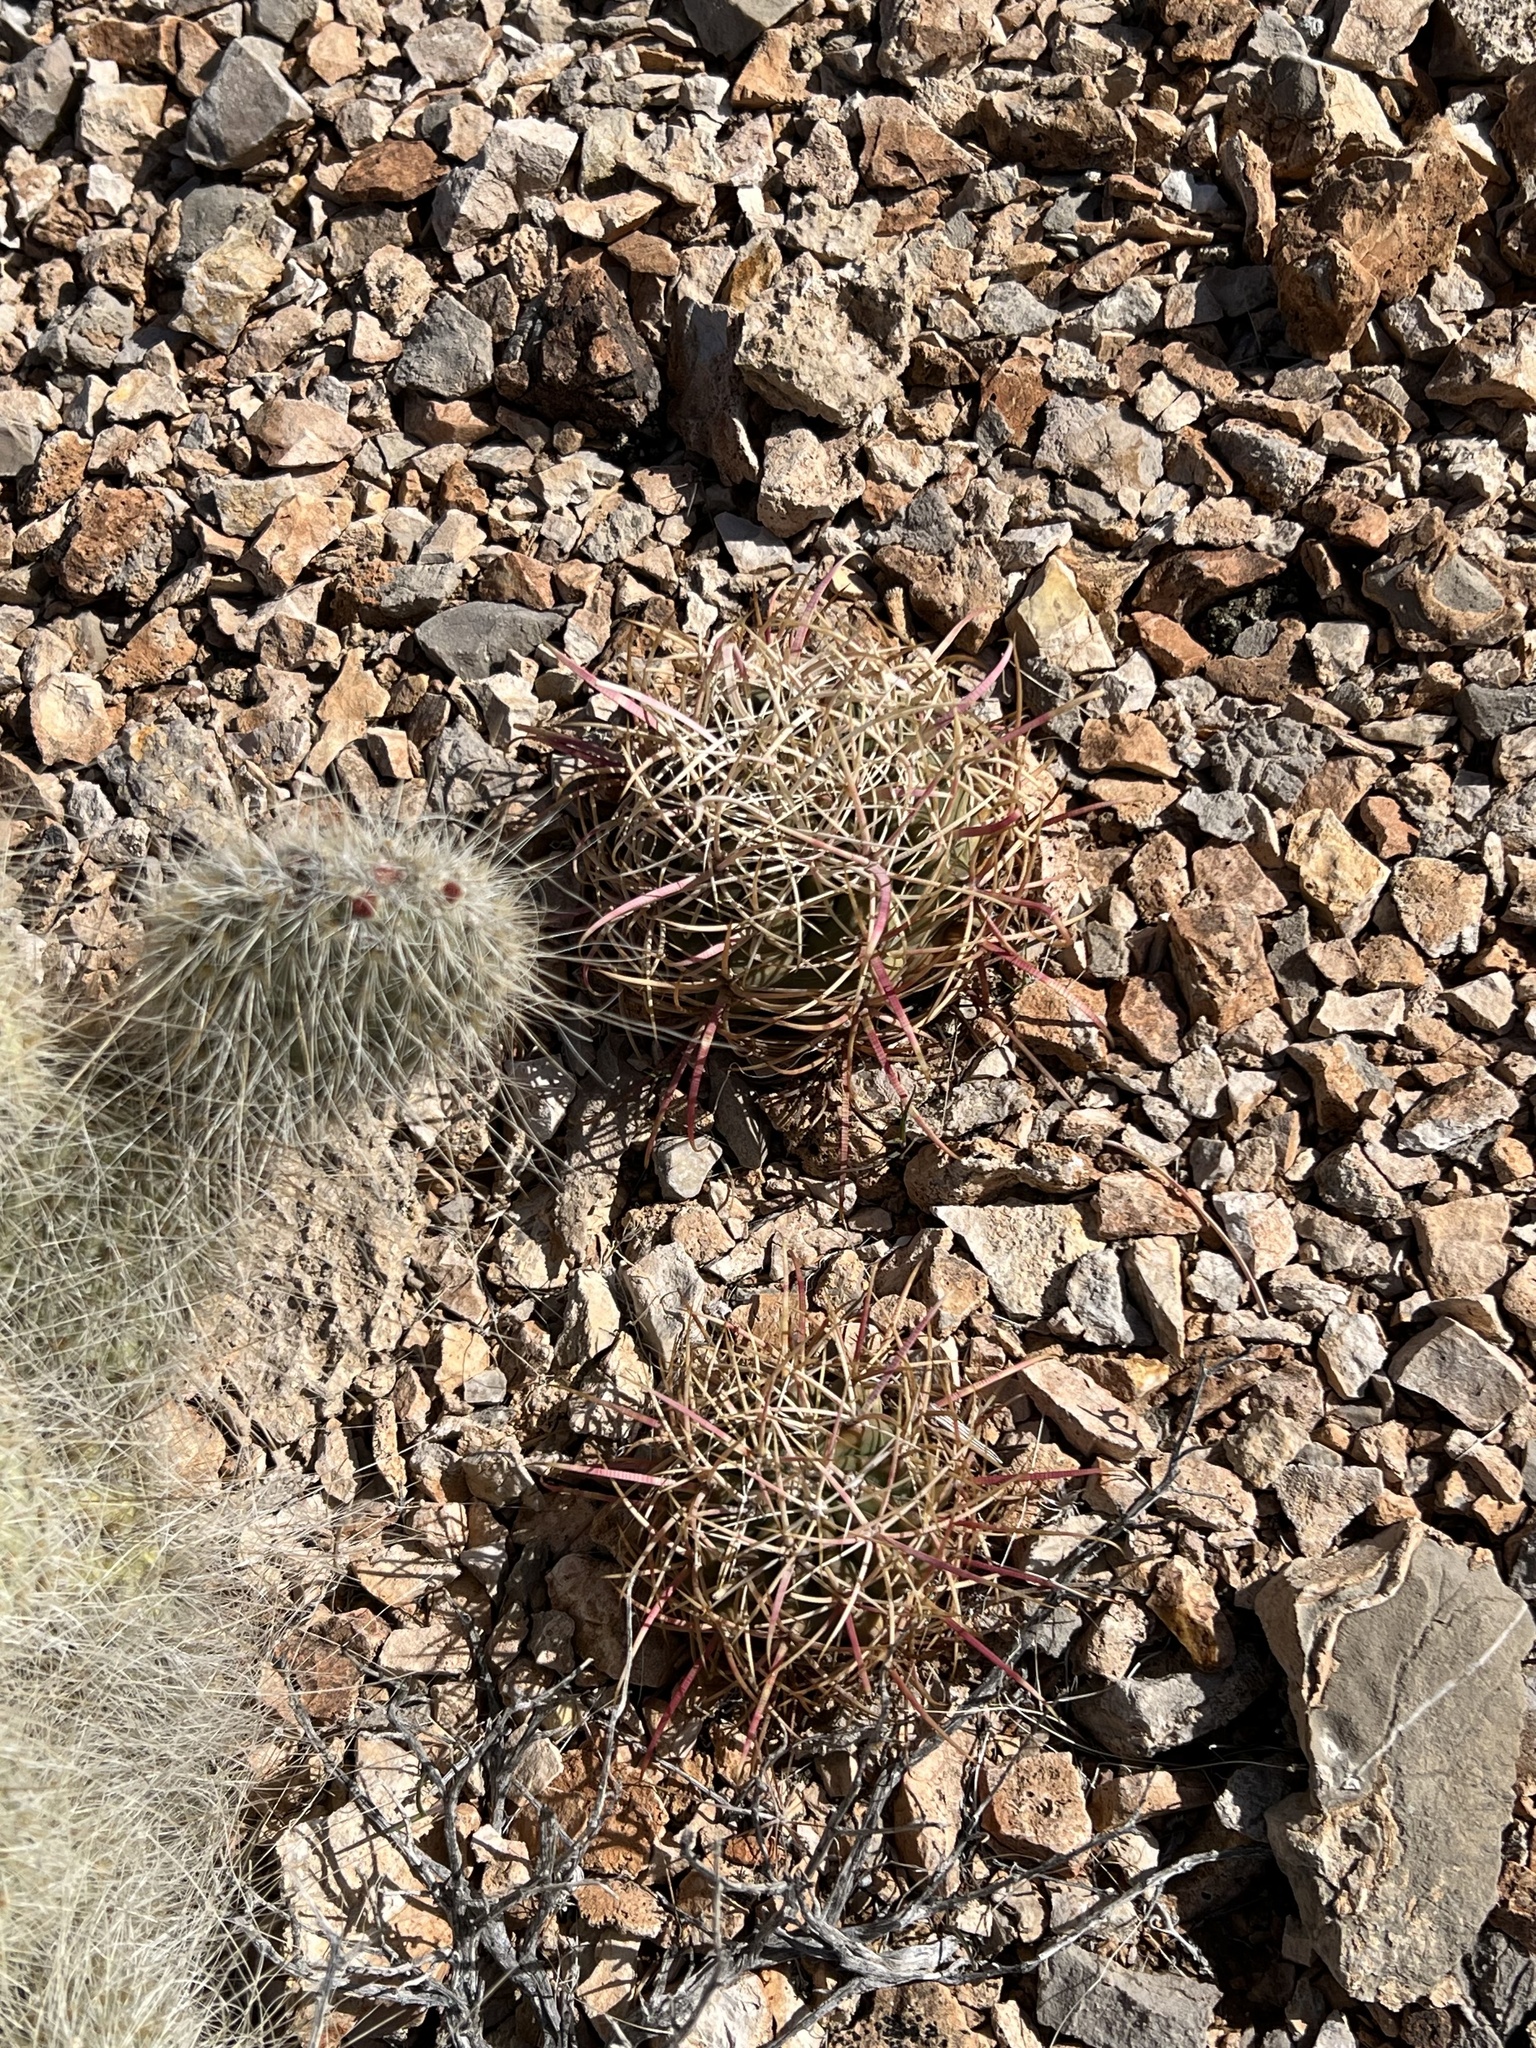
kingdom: Plantae
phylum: Tracheophyta
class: Magnoliopsida
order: Caryophyllales
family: Cactaceae
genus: Ferocactus
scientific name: Ferocactus cylindraceus
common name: California barrel cactus
